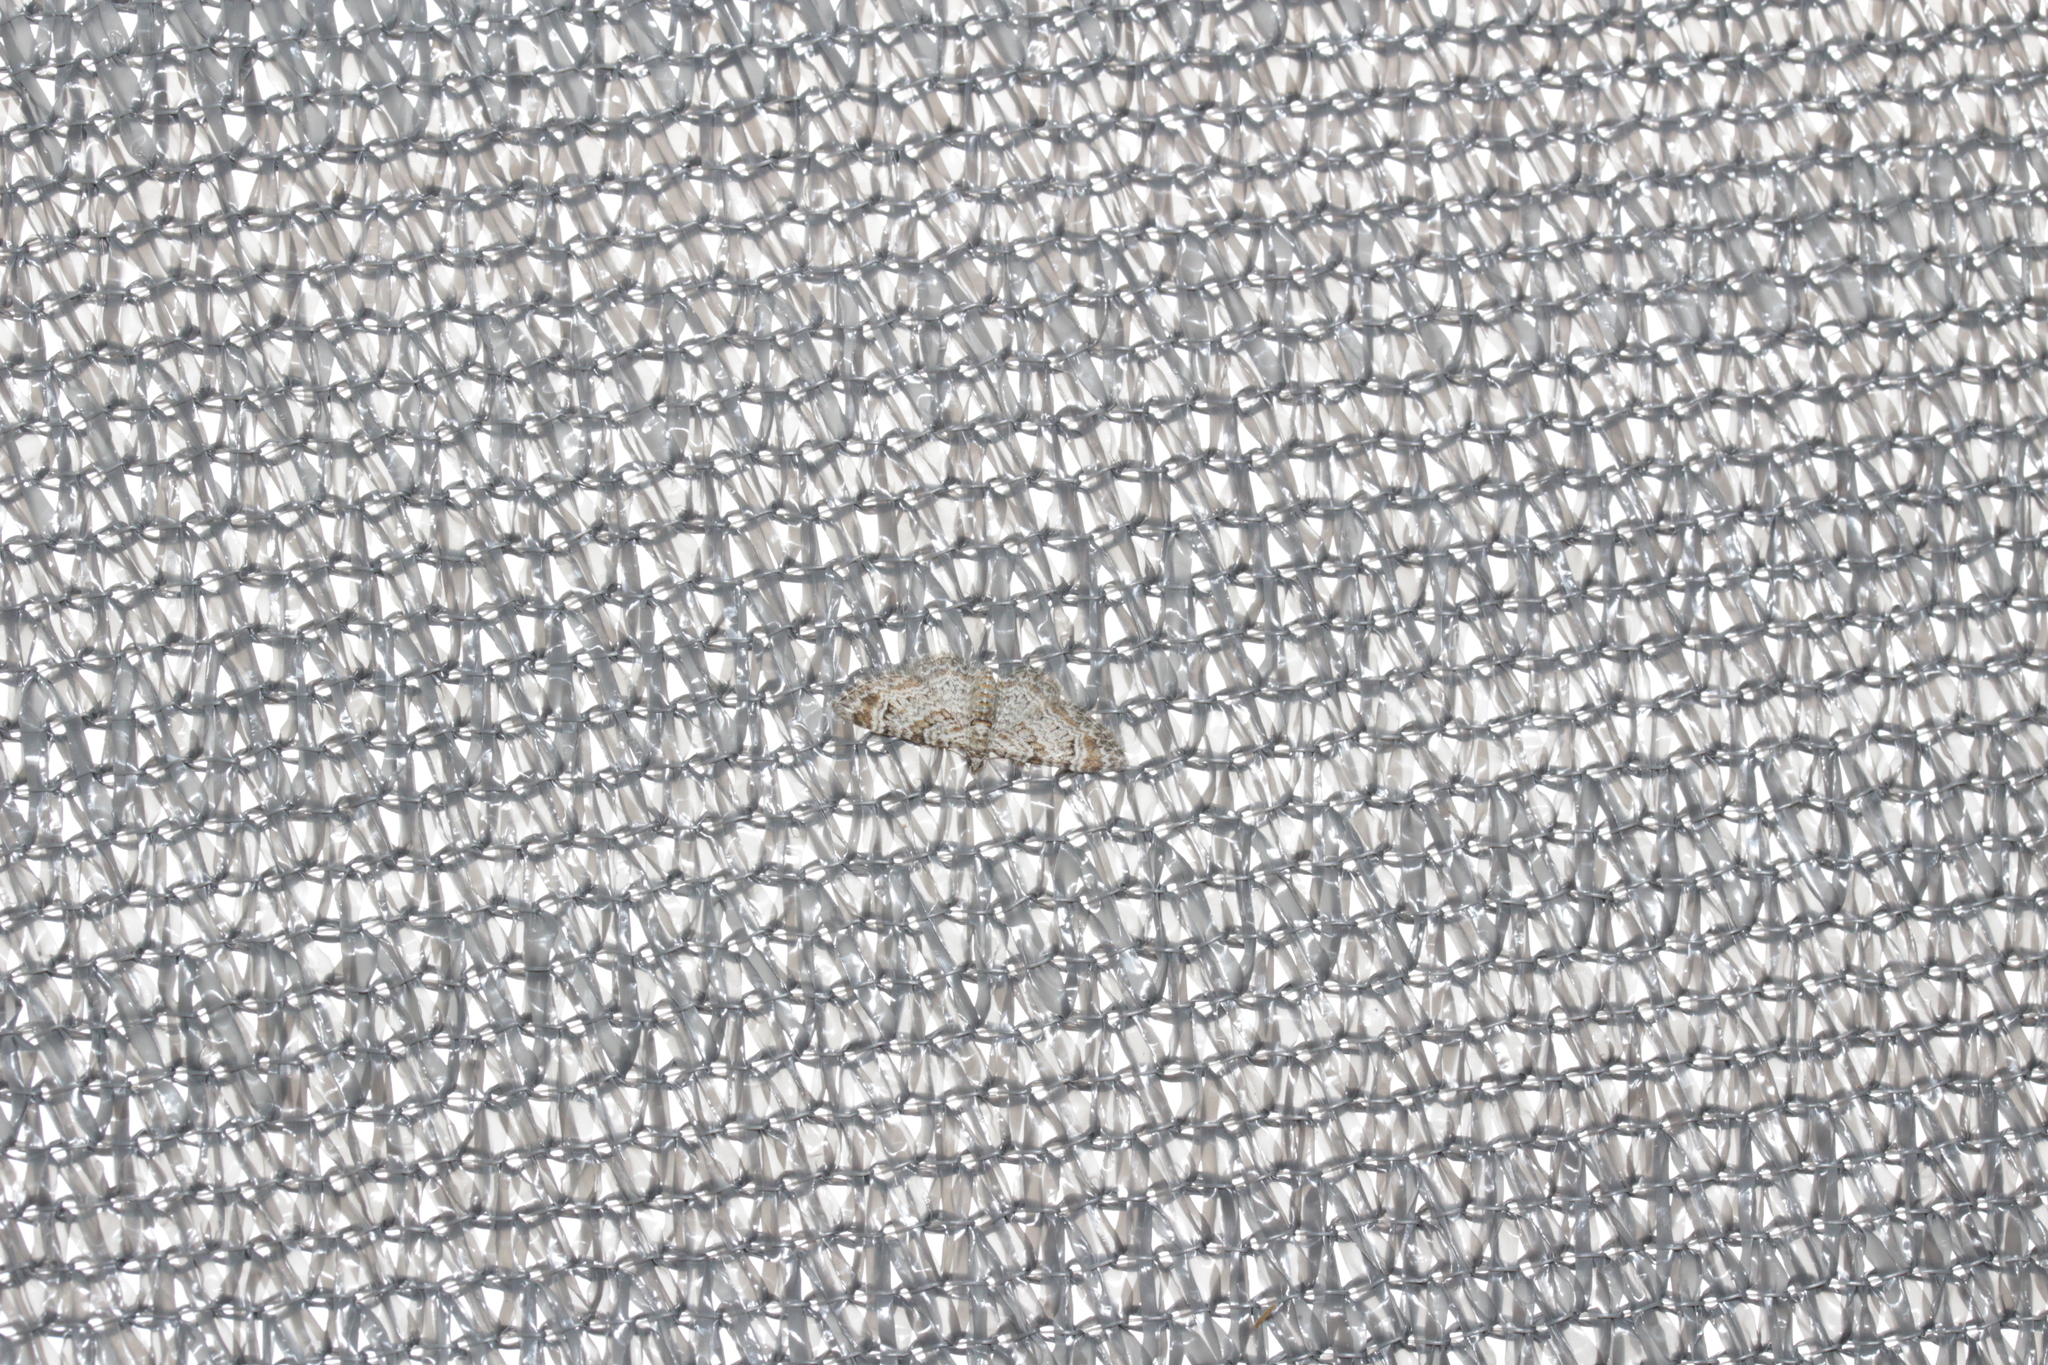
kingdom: Animalia
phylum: Arthropoda
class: Insecta
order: Lepidoptera
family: Geometridae
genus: Gymnoscelis
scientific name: Gymnoscelis rufifasciata
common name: Double-striped pug
